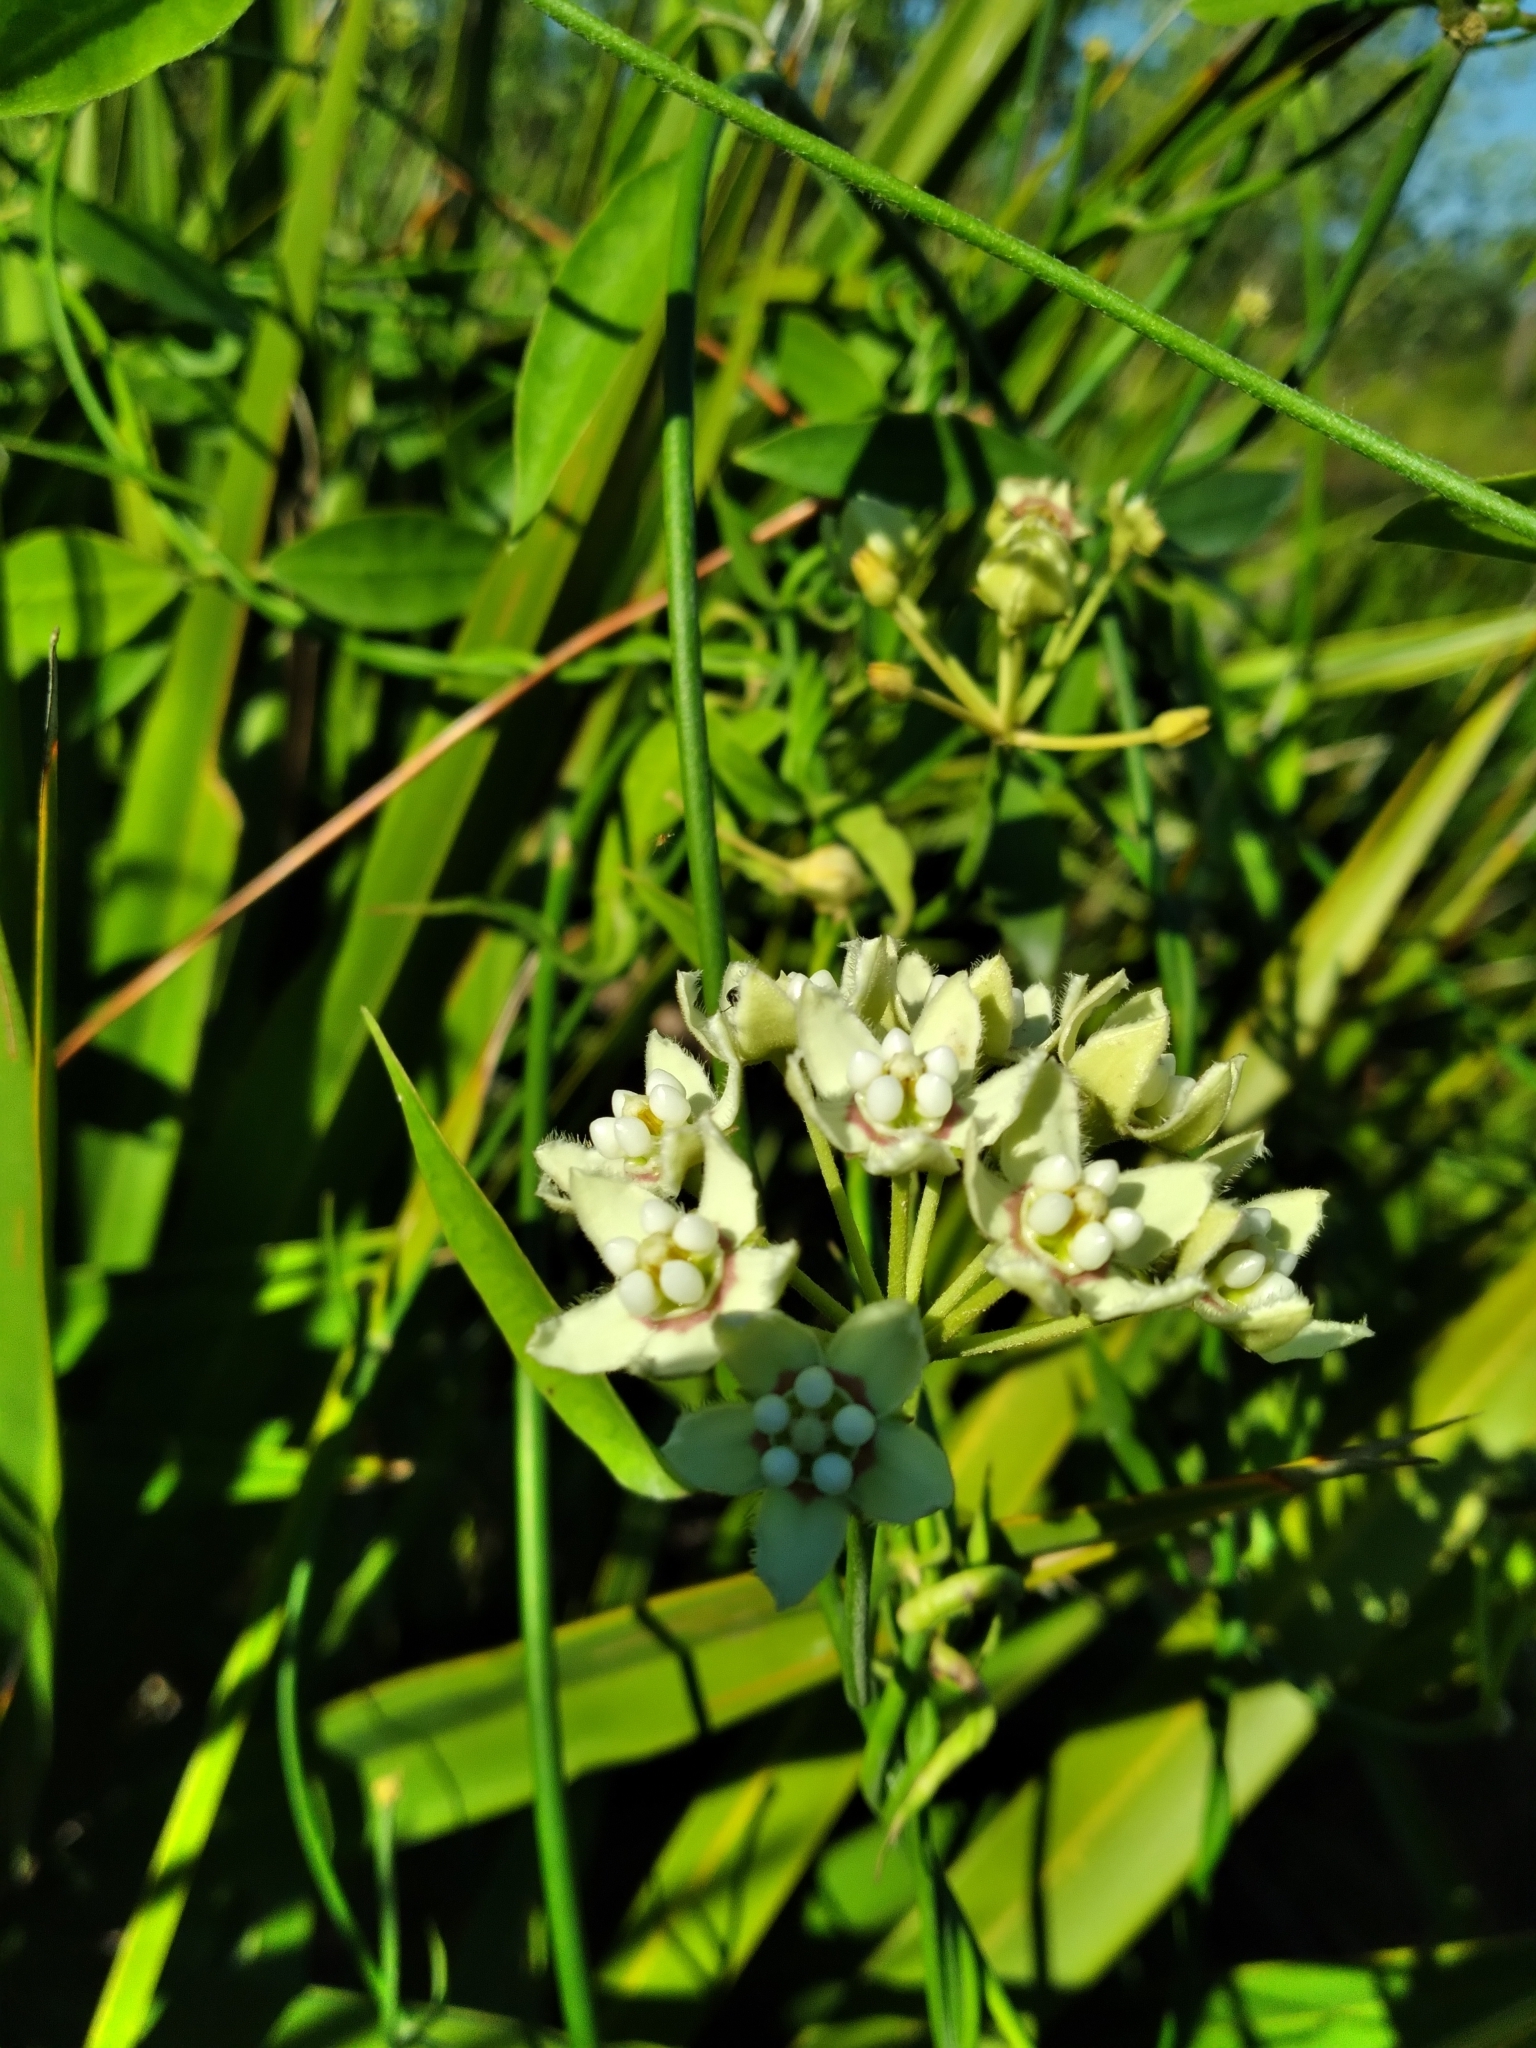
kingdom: Plantae
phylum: Tracheophyta
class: Magnoliopsida
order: Gentianales
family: Apocynaceae
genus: Funastrum
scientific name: Funastrum clausum
